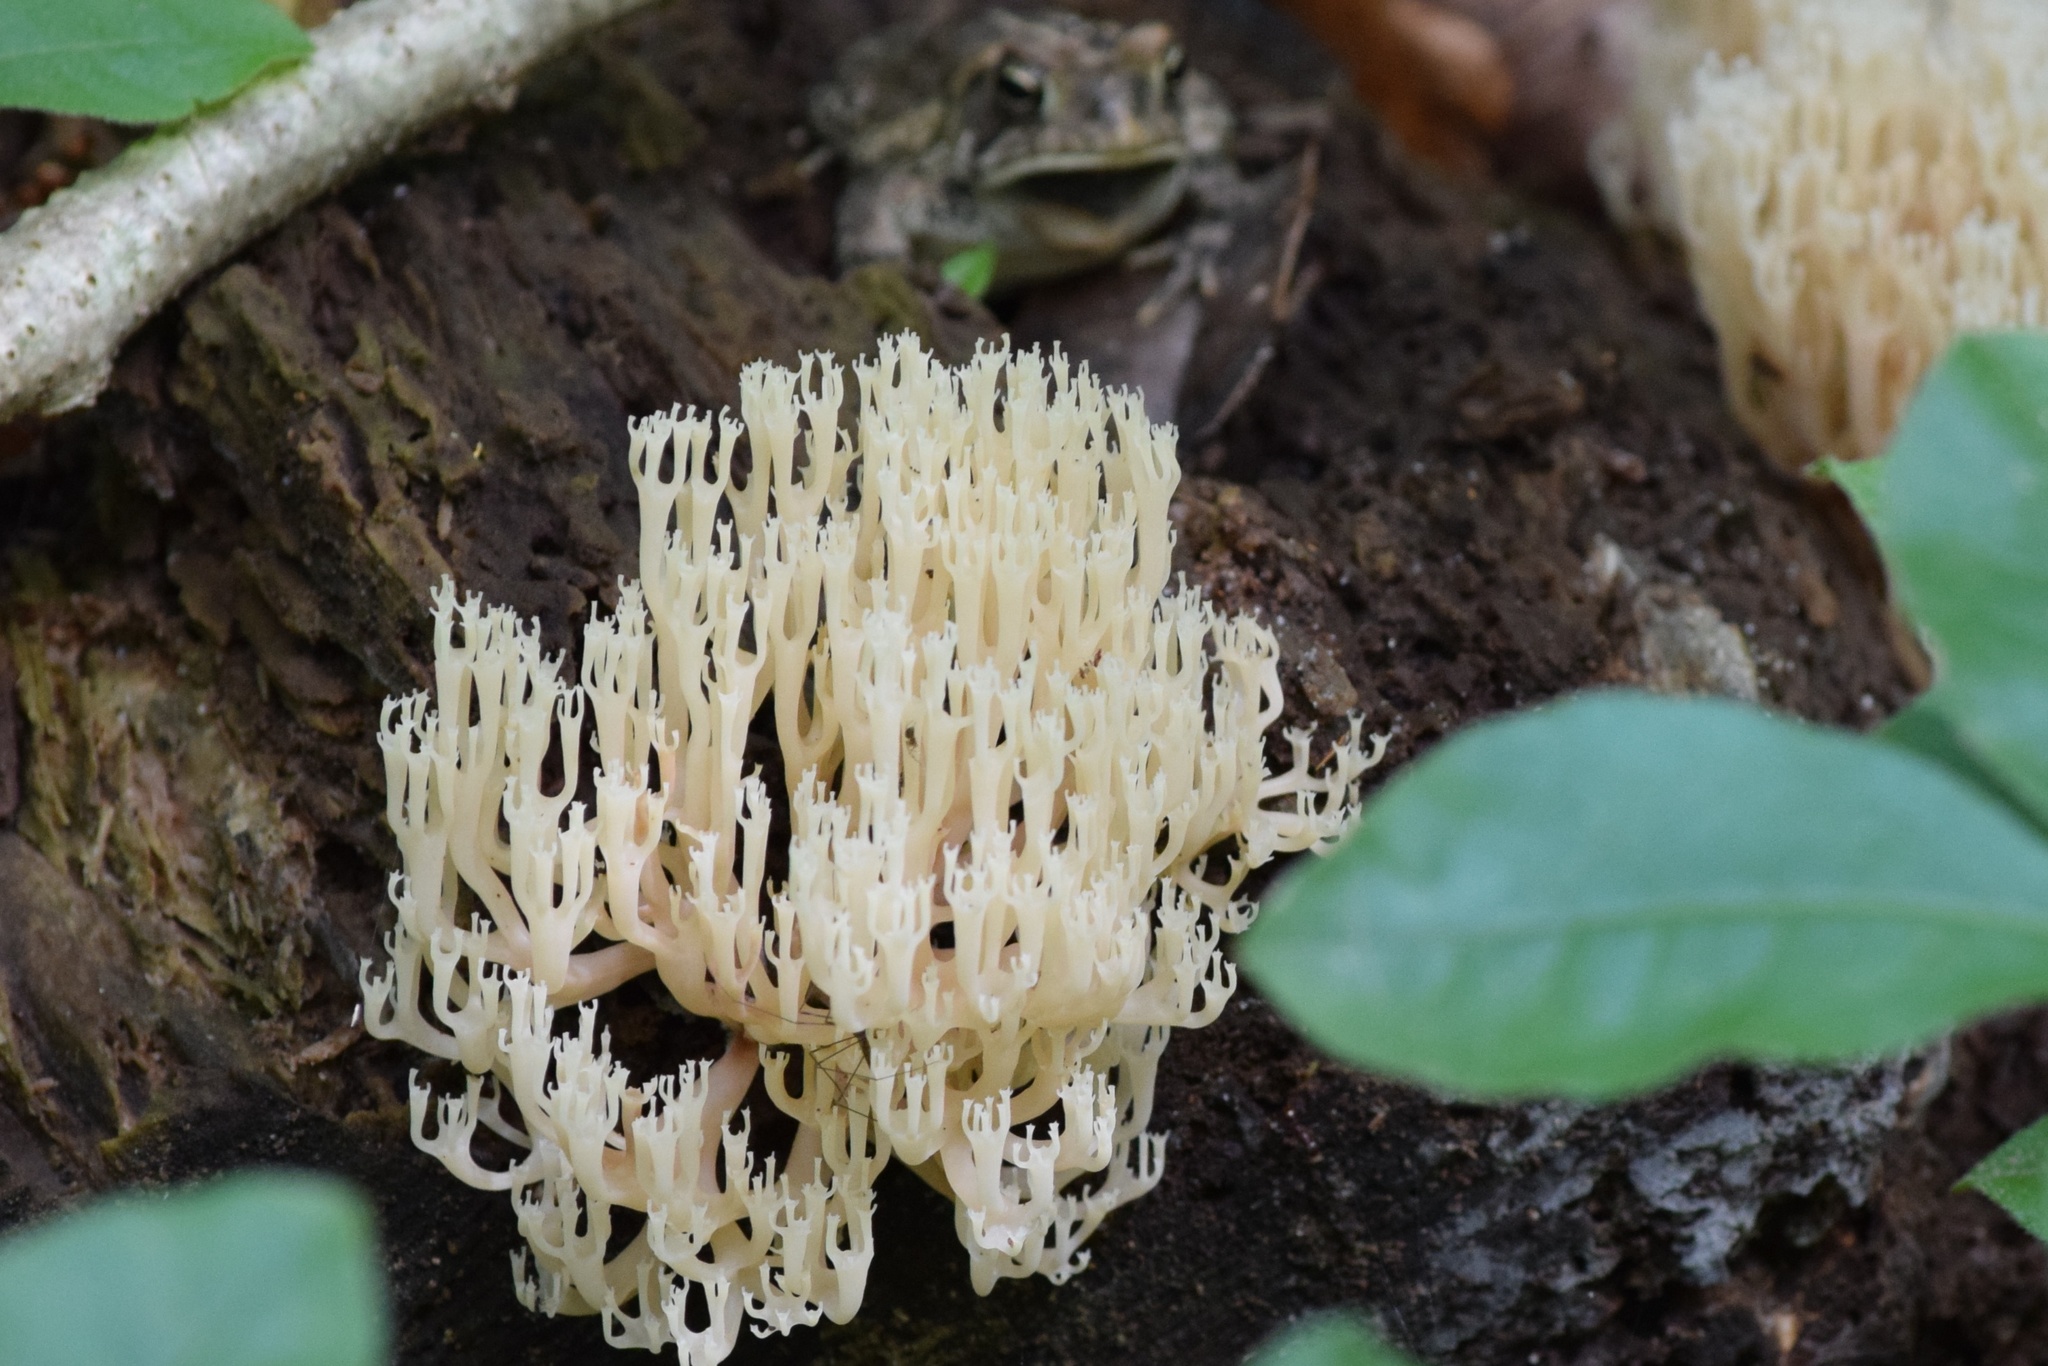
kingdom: Fungi
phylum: Basidiomycota
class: Agaricomycetes
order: Russulales
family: Auriscalpiaceae
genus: Artomyces
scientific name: Artomyces pyxidatus
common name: Crown-tipped coral fungus
